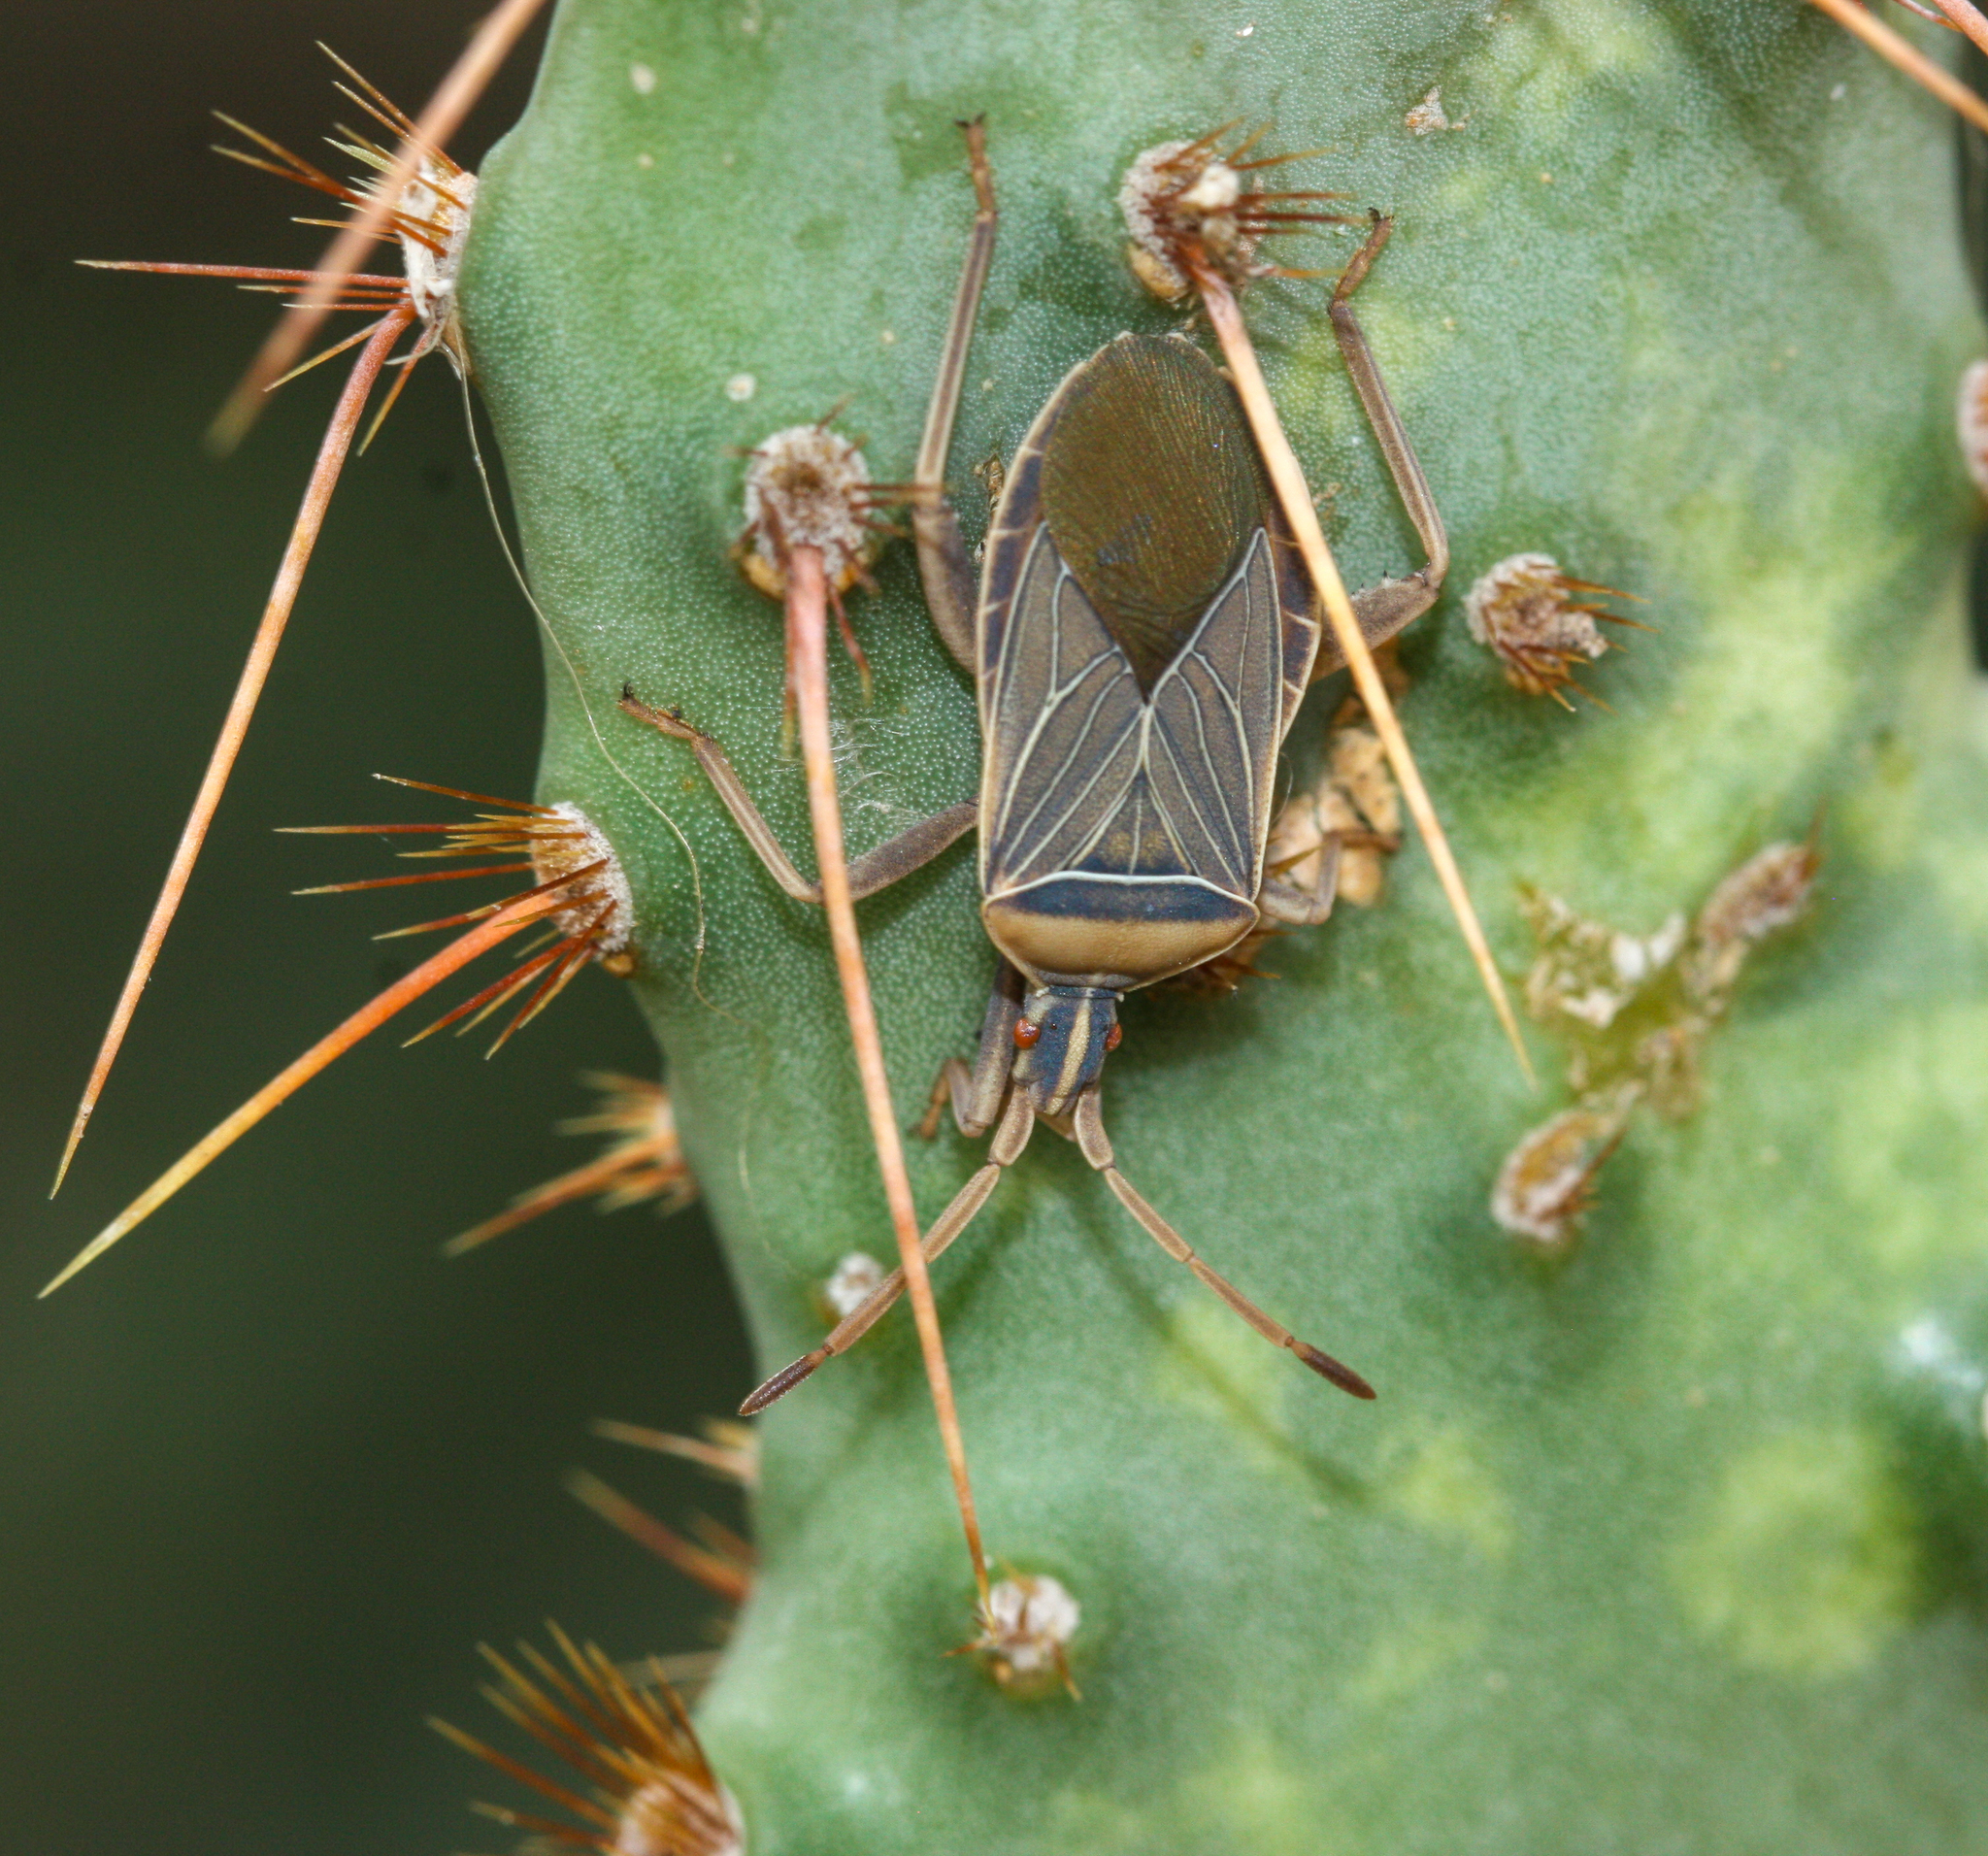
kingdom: Animalia
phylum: Arthropoda
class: Insecta
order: Hemiptera
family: Coreidae
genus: Chelinidea
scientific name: Chelinidea vittiger
